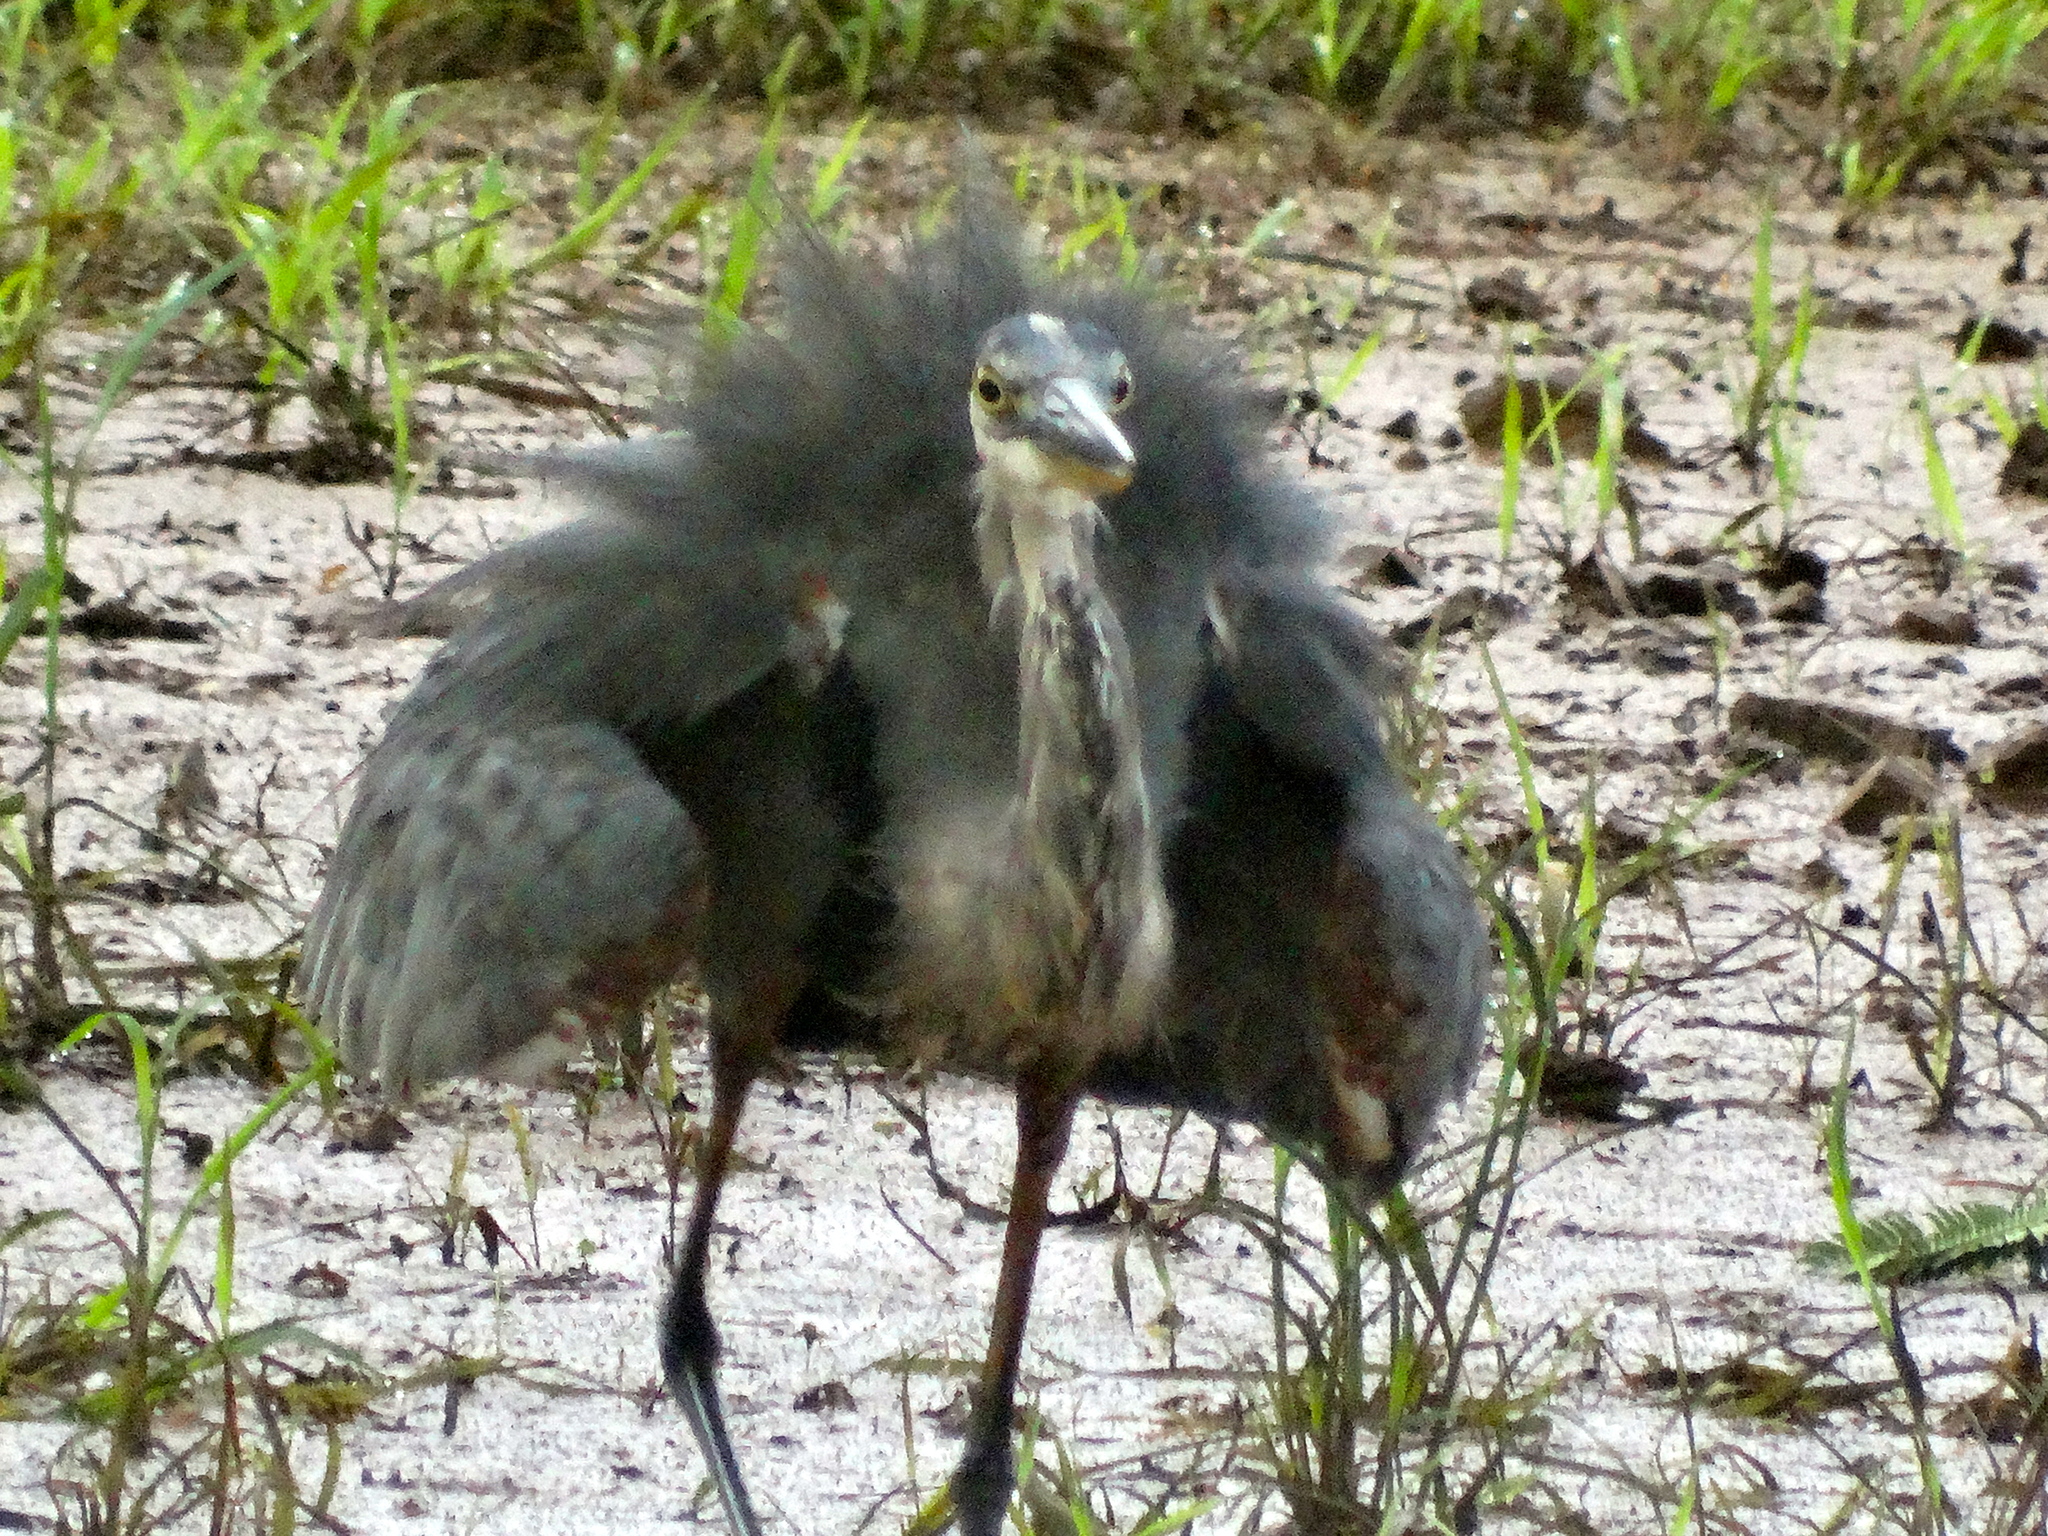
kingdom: Animalia
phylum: Chordata
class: Aves
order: Pelecaniformes
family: Ardeidae
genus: Ardea
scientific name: Ardea herodias
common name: Great blue heron
